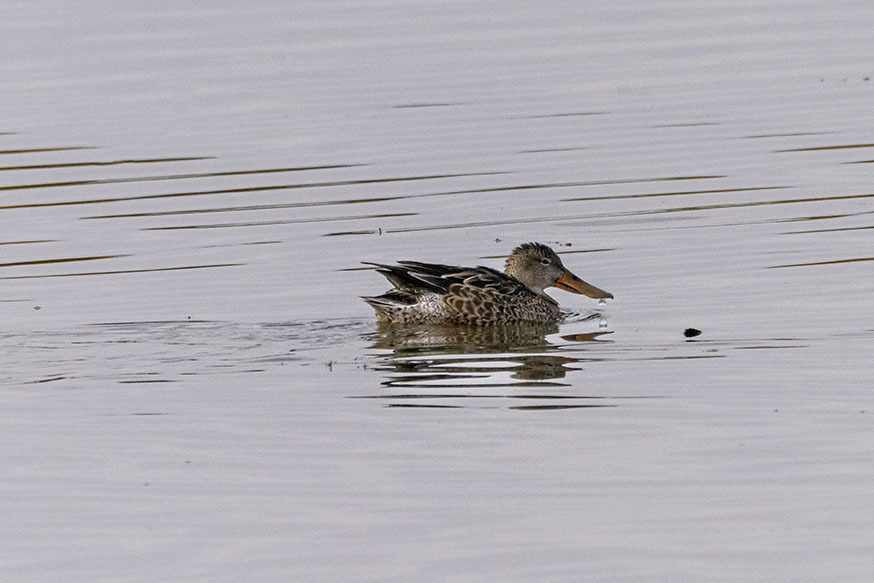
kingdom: Animalia
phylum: Chordata
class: Aves
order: Anseriformes
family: Anatidae
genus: Spatula
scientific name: Spatula clypeata
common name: Northern shoveler
